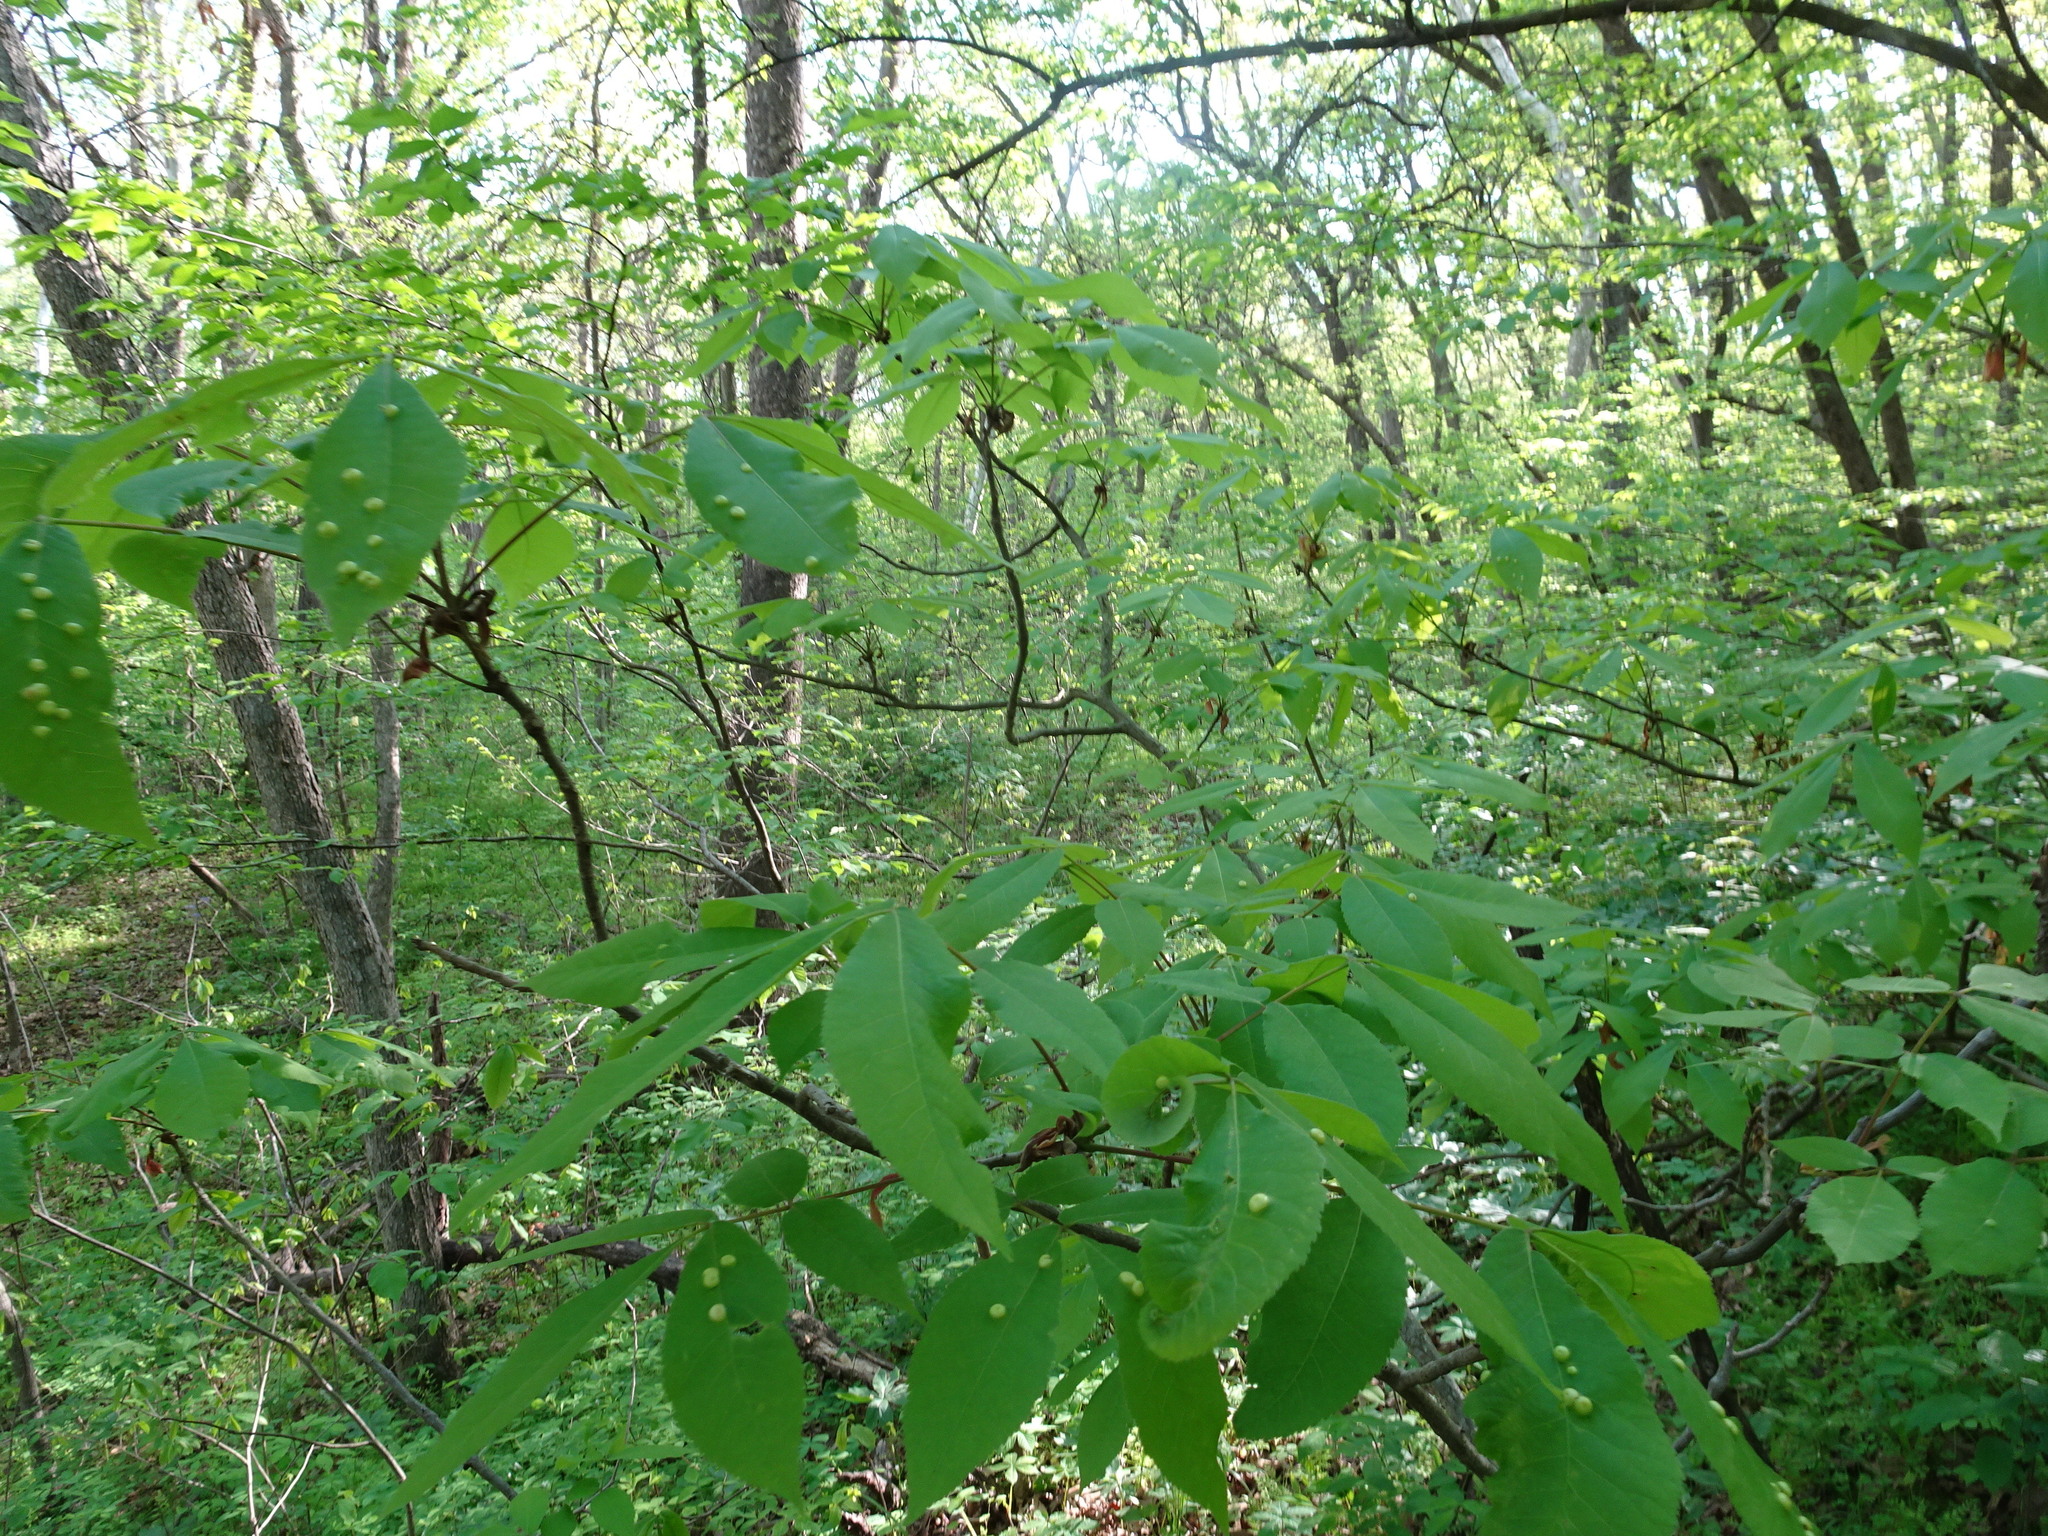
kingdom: Animalia
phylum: Arthropoda
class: Insecta
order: Hemiptera
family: Phylloxeridae
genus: Phylloxera
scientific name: Phylloxera caryae-globuli
